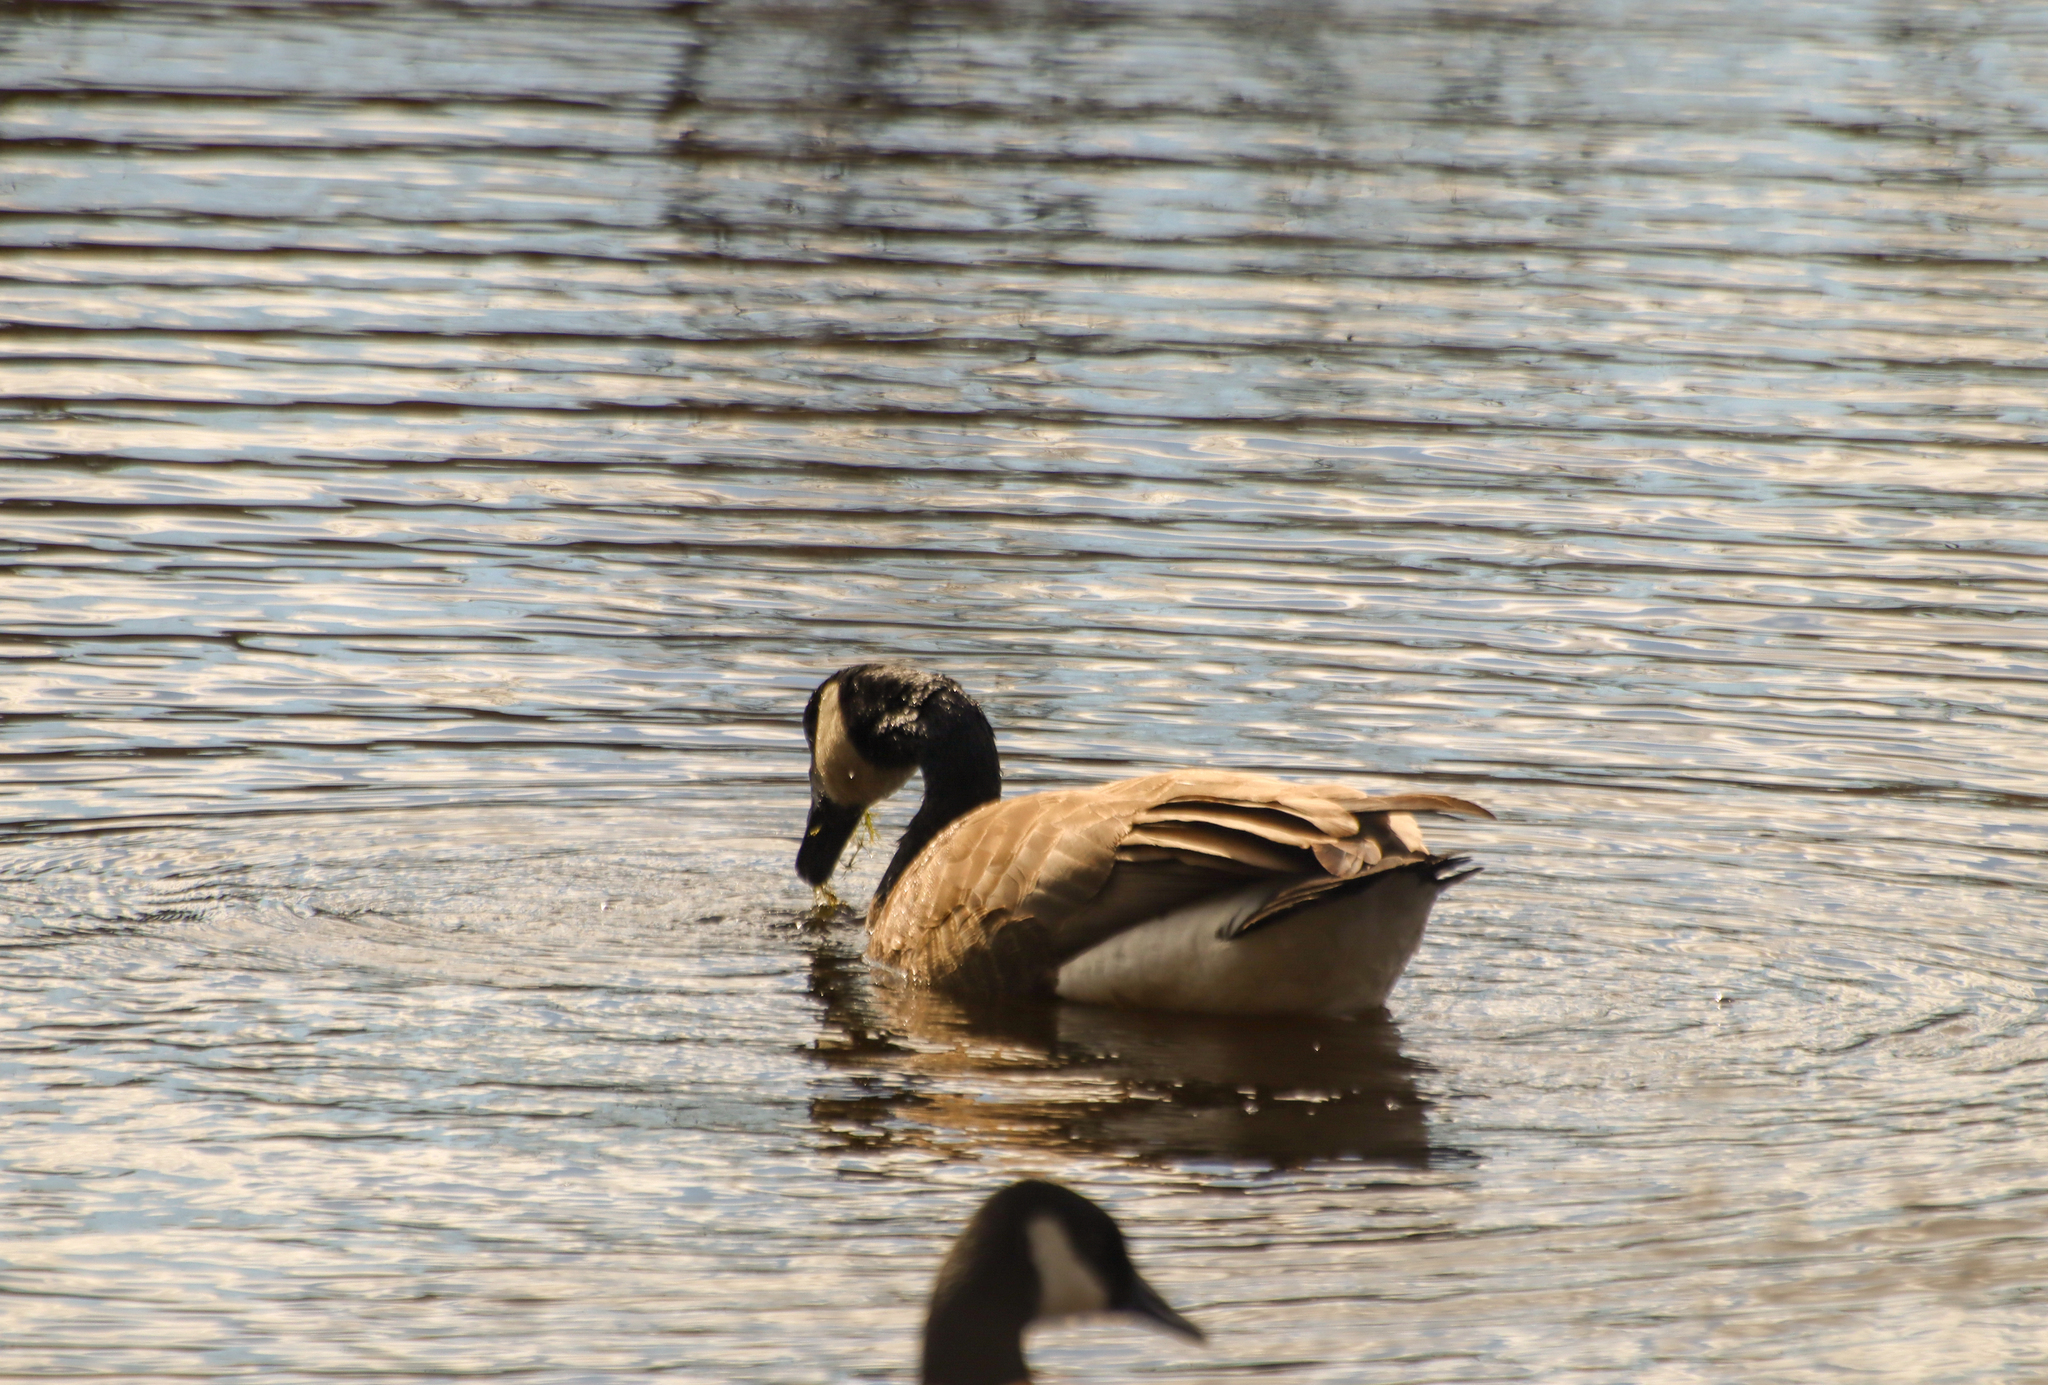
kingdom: Animalia
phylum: Chordata
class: Aves
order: Anseriformes
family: Anatidae
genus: Branta
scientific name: Branta canadensis
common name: Canada goose
